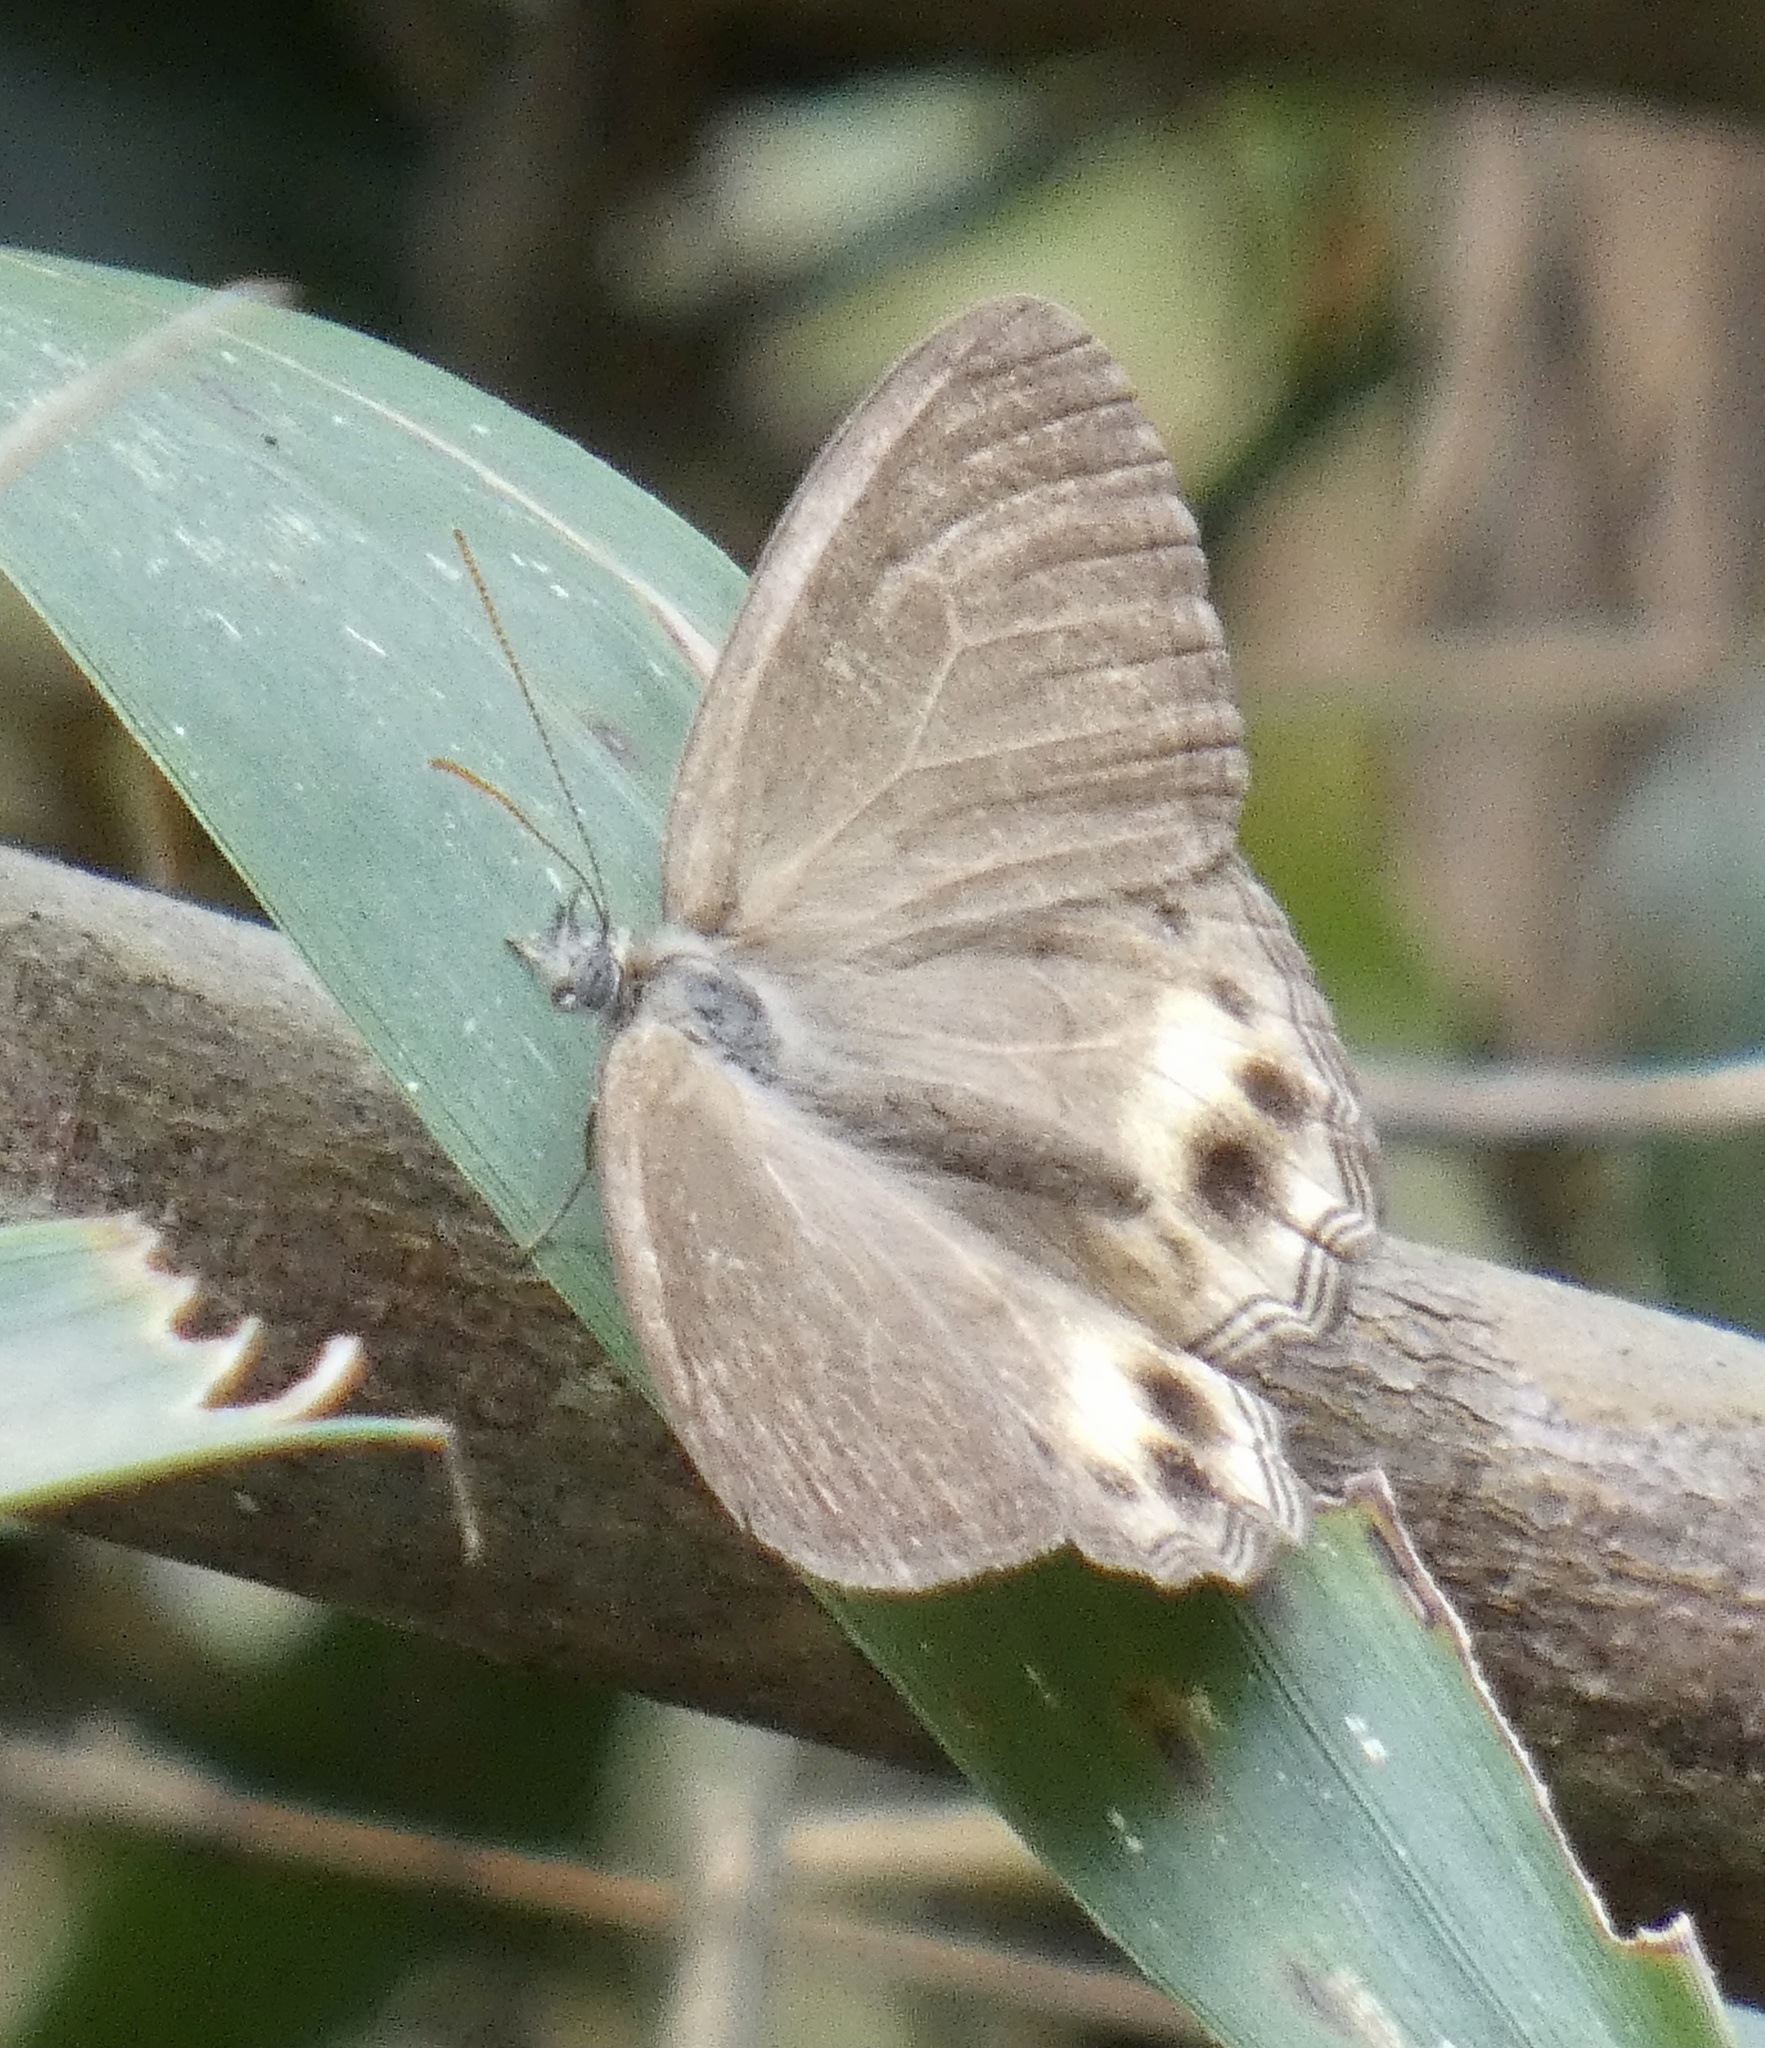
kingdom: Animalia
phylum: Arthropoda
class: Insecta
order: Lepidoptera
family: Nymphalidae
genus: Splendeuptychia
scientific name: Splendeuptychia pagyris
